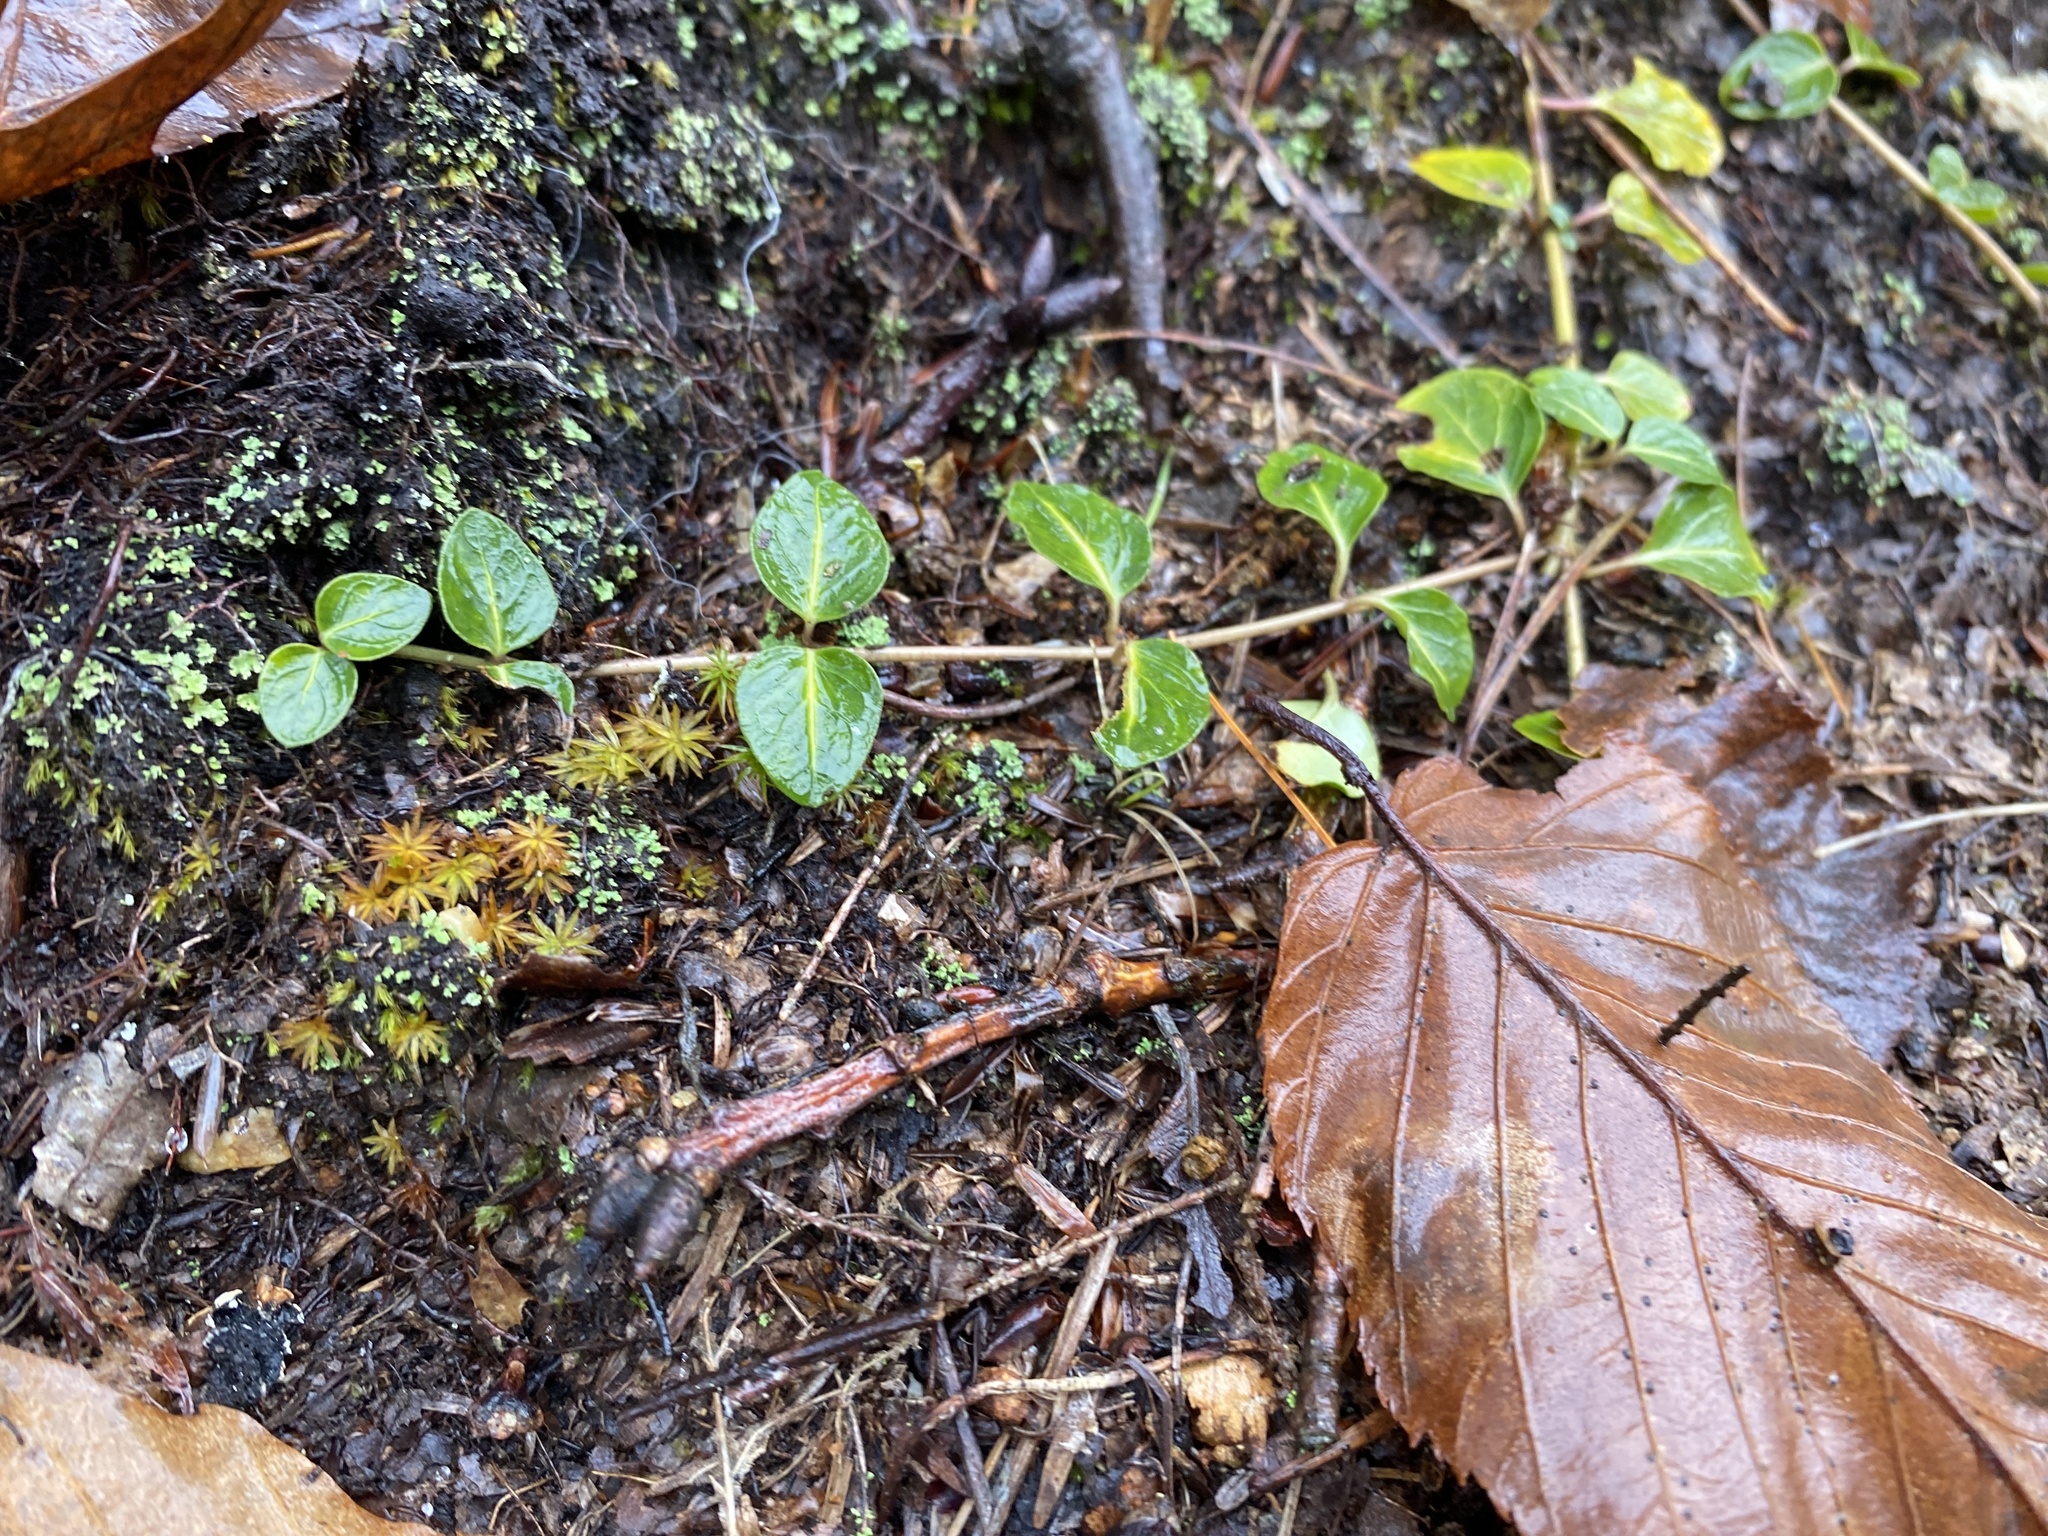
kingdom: Plantae
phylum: Tracheophyta
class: Magnoliopsida
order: Gentianales
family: Rubiaceae
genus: Mitchella
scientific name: Mitchella repens
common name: Partridge-berry
